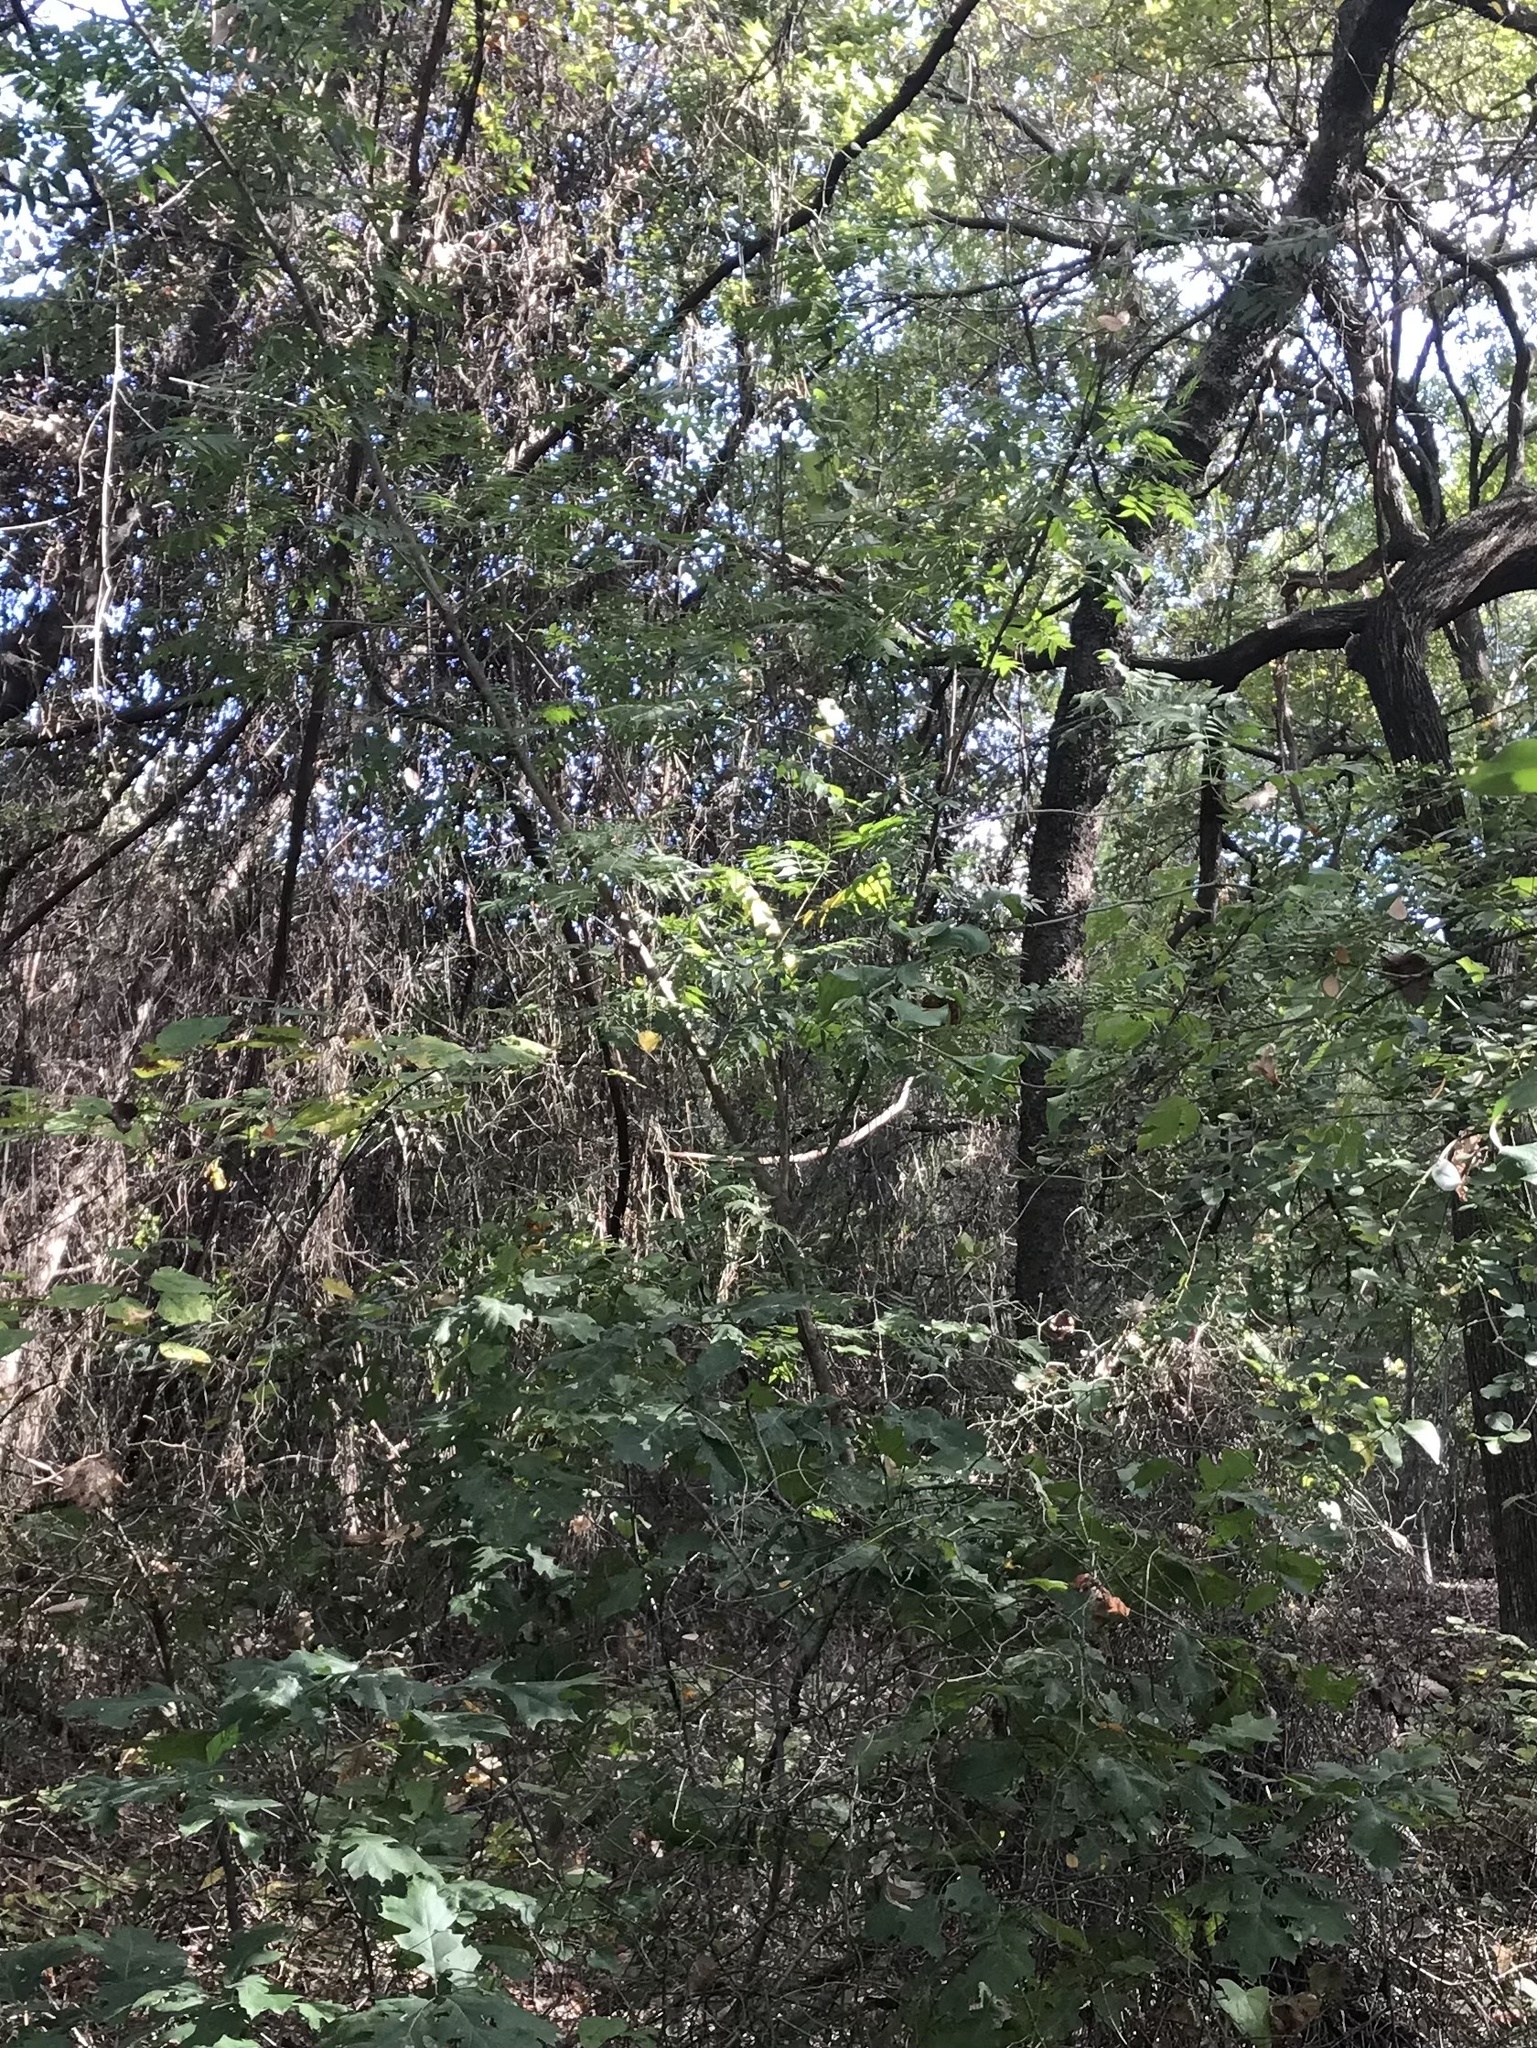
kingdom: Plantae
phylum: Tracheophyta
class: Magnoliopsida
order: Sapindales
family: Anacardiaceae
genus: Pistacia
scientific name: Pistacia chinensis
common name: Chinese pistache
